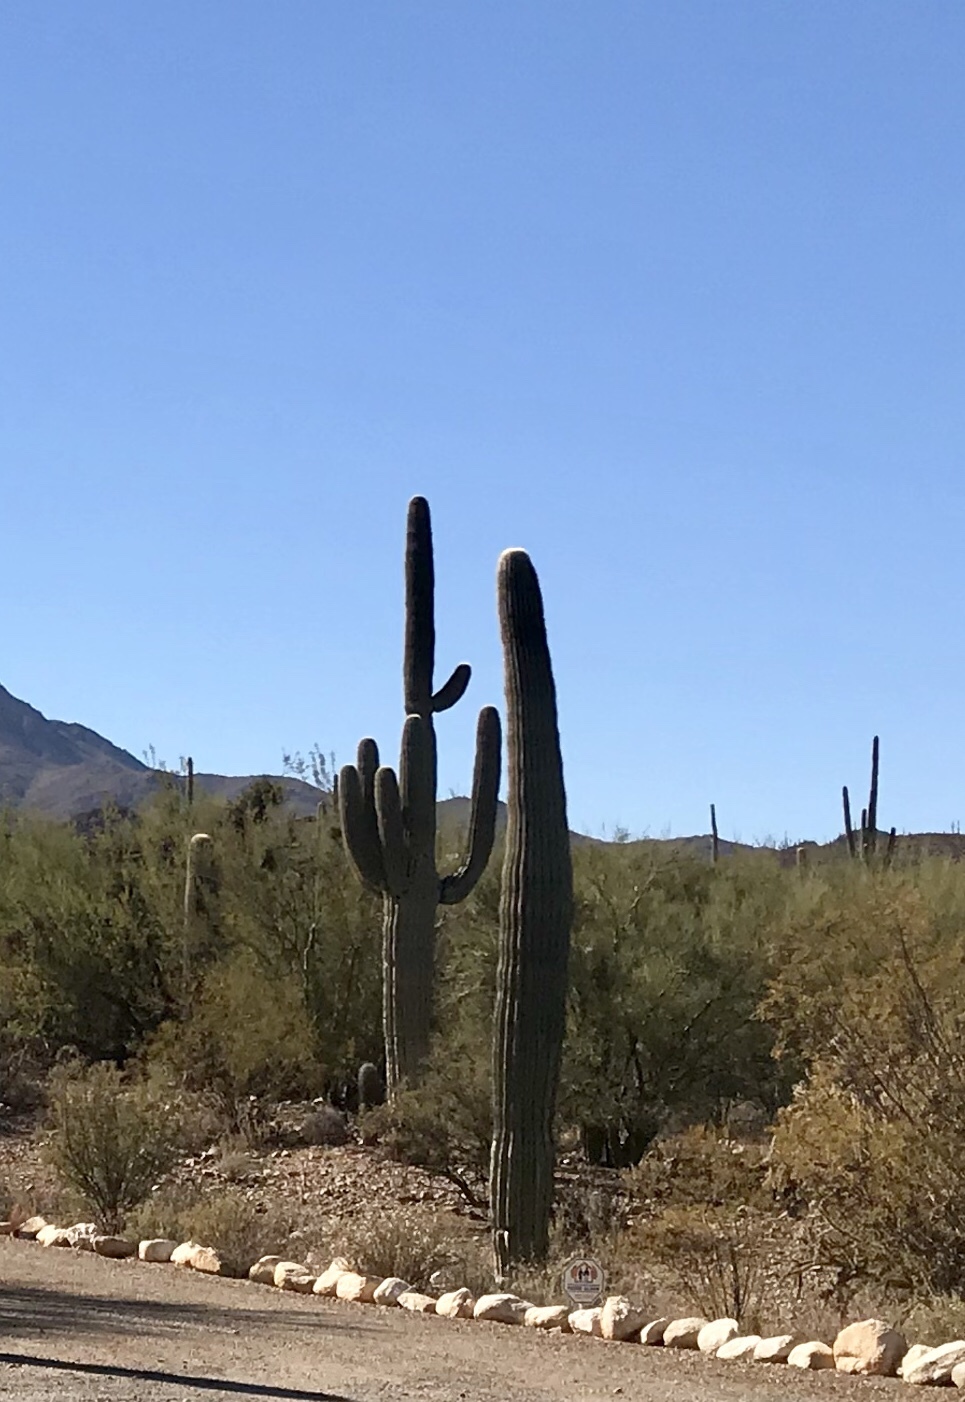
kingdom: Plantae
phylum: Tracheophyta
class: Magnoliopsida
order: Caryophyllales
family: Cactaceae
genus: Carnegiea
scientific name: Carnegiea gigantea
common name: Saguaro
